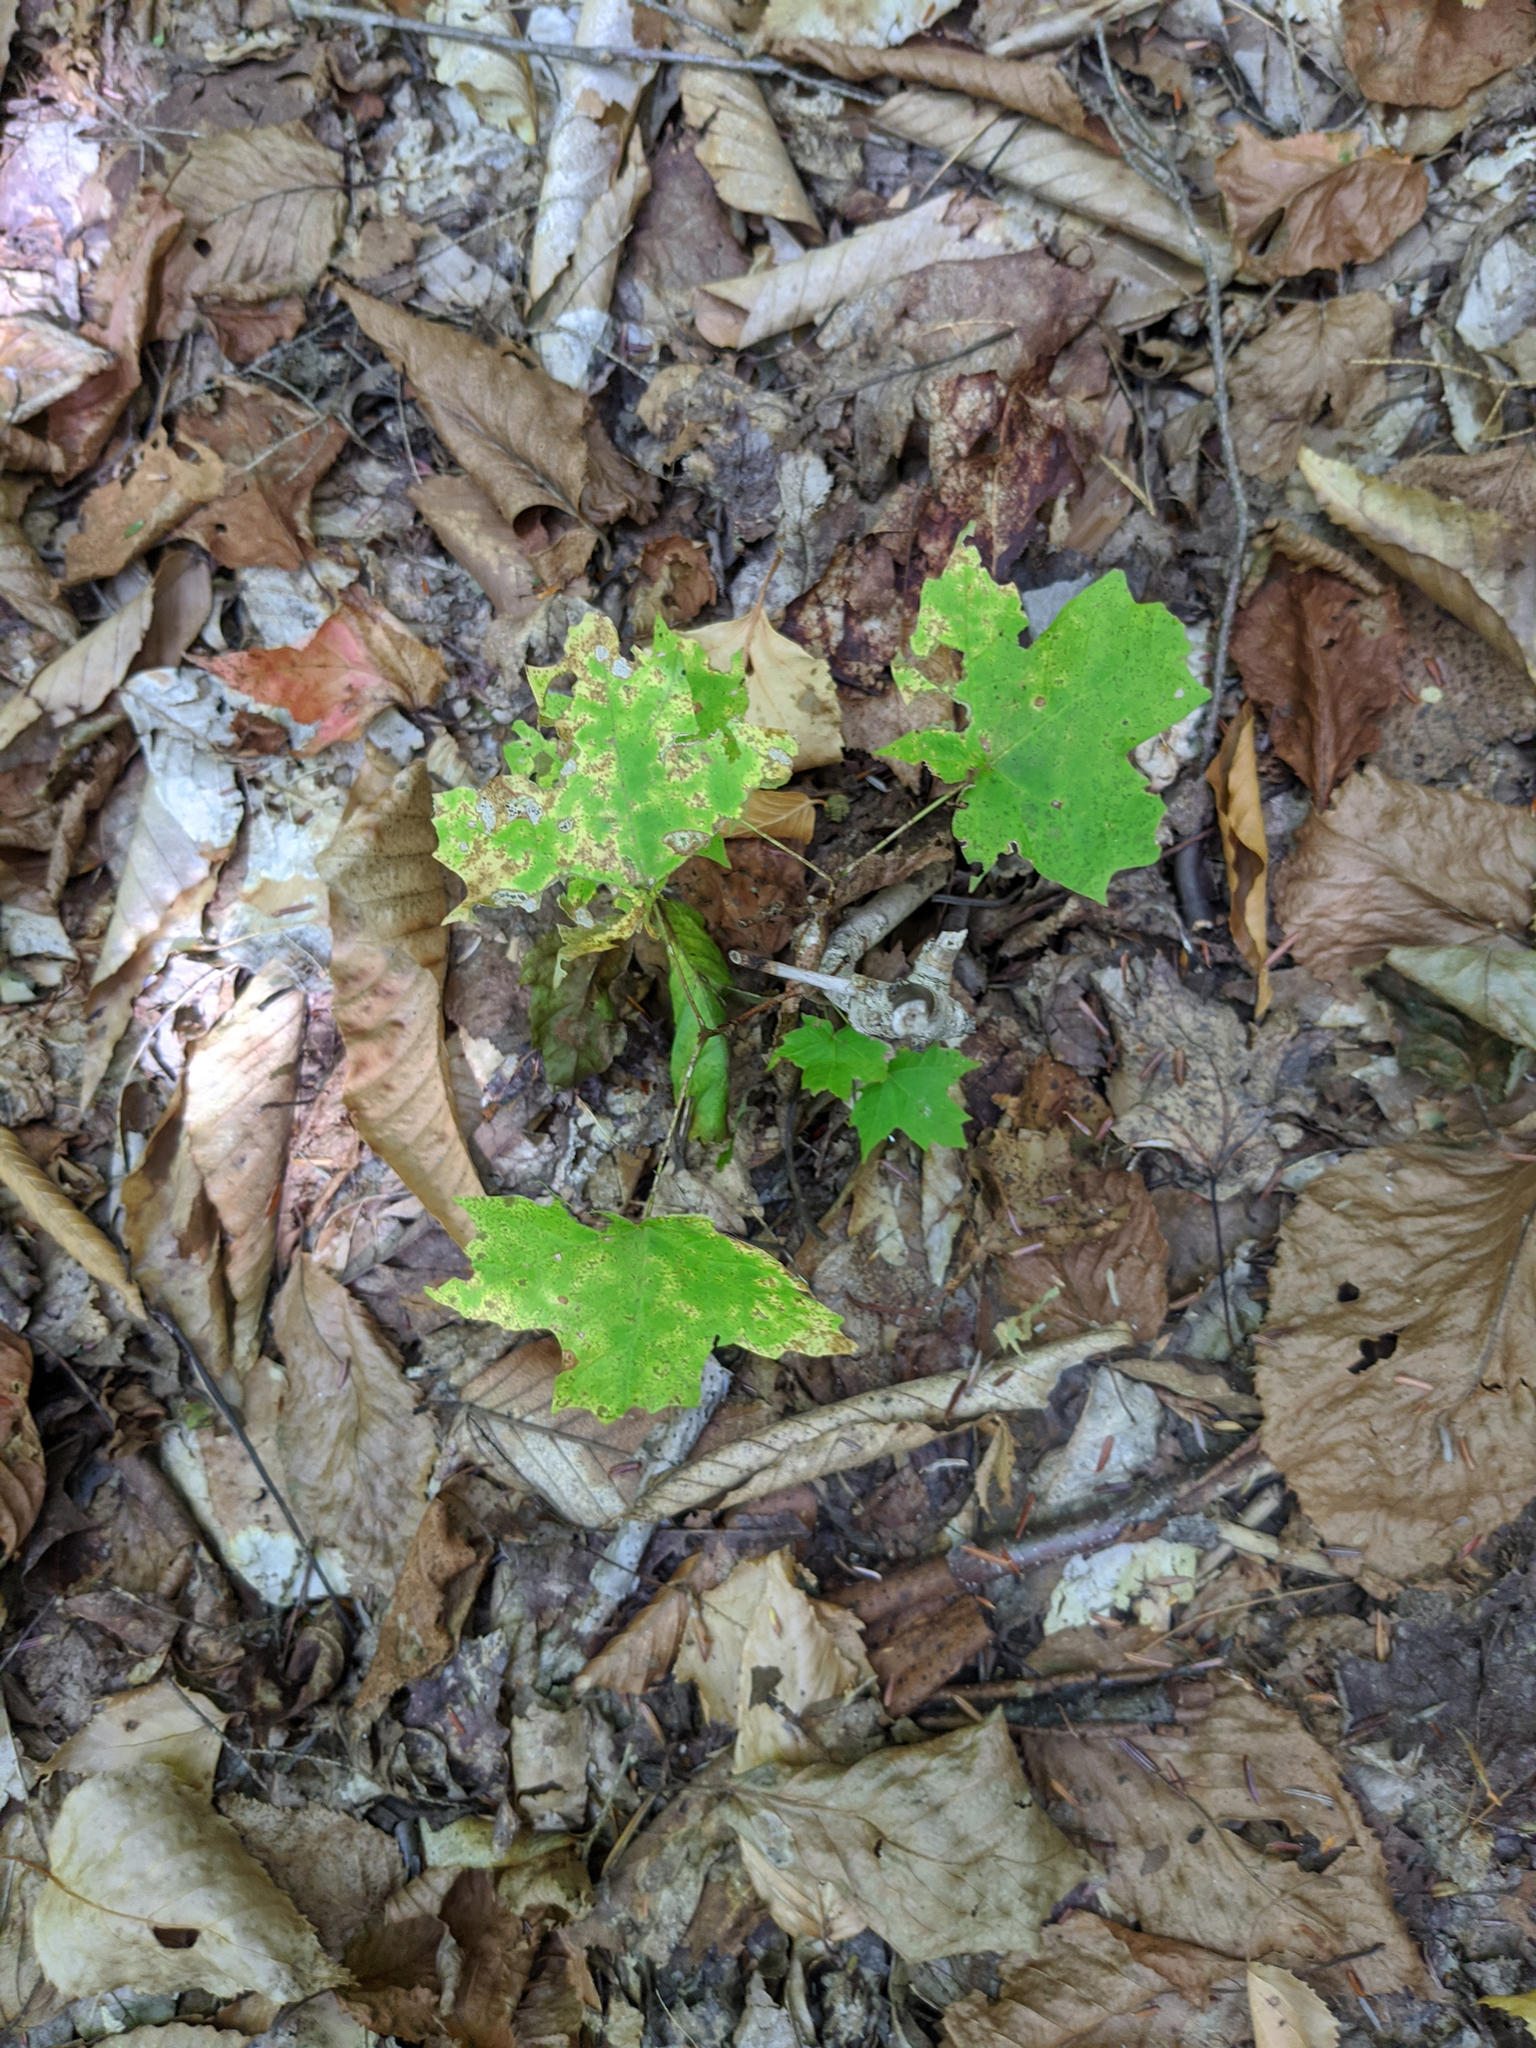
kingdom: Plantae
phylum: Tracheophyta
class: Magnoliopsida
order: Sapindales
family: Sapindaceae
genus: Acer
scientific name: Acer saccharum
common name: Sugar maple
